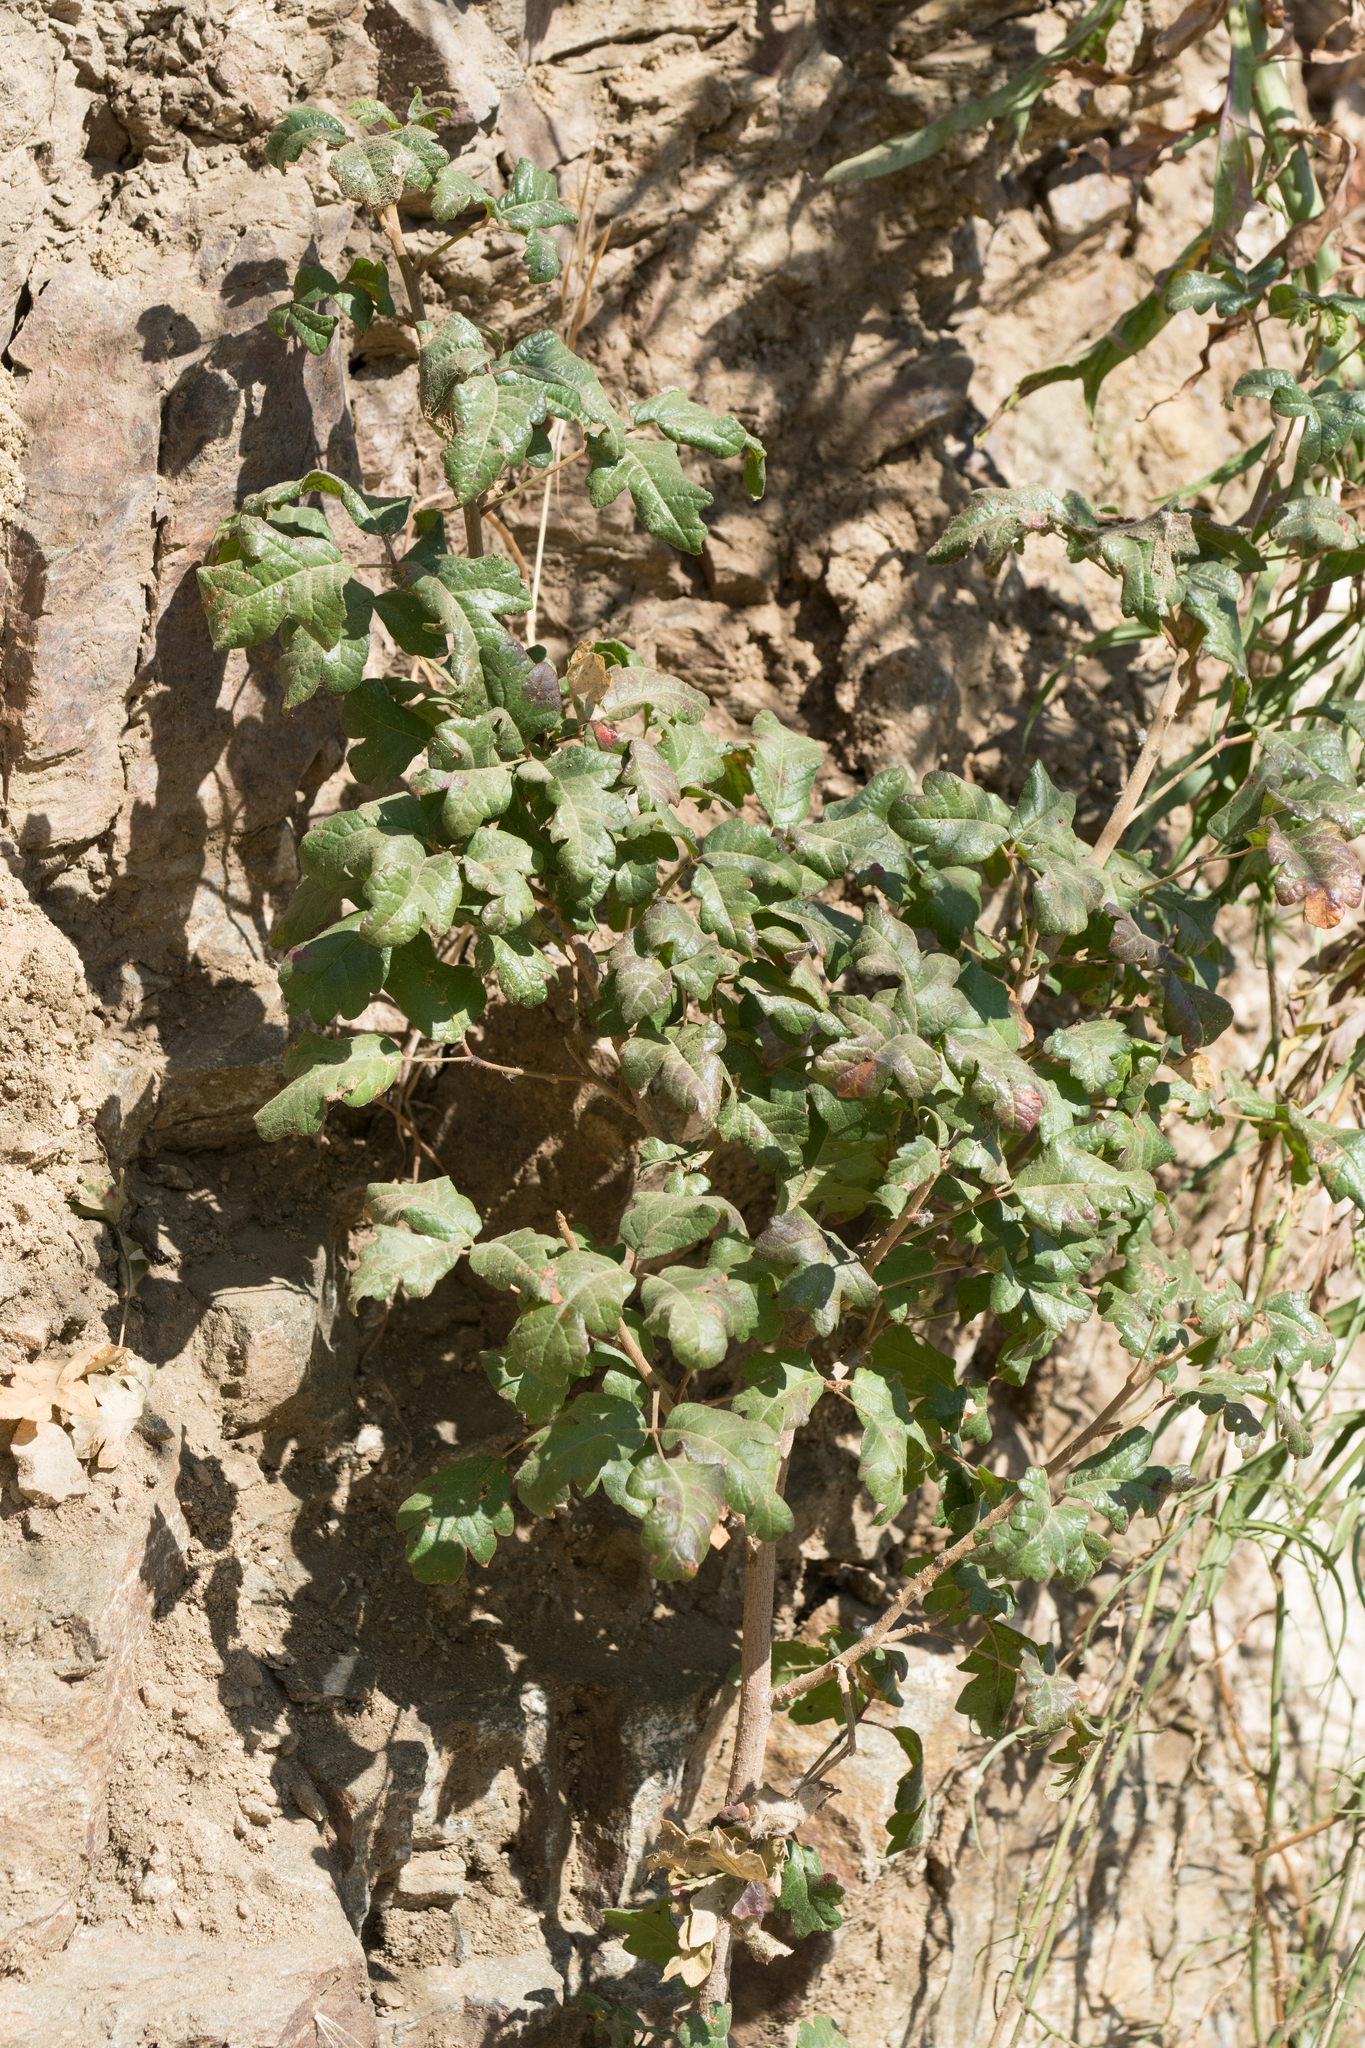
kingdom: Plantae
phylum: Tracheophyta
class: Magnoliopsida
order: Sapindales
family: Anacardiaceae
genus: Toxicodendron
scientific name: Toxicodendron diversilobum
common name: Pacific poison-oak
